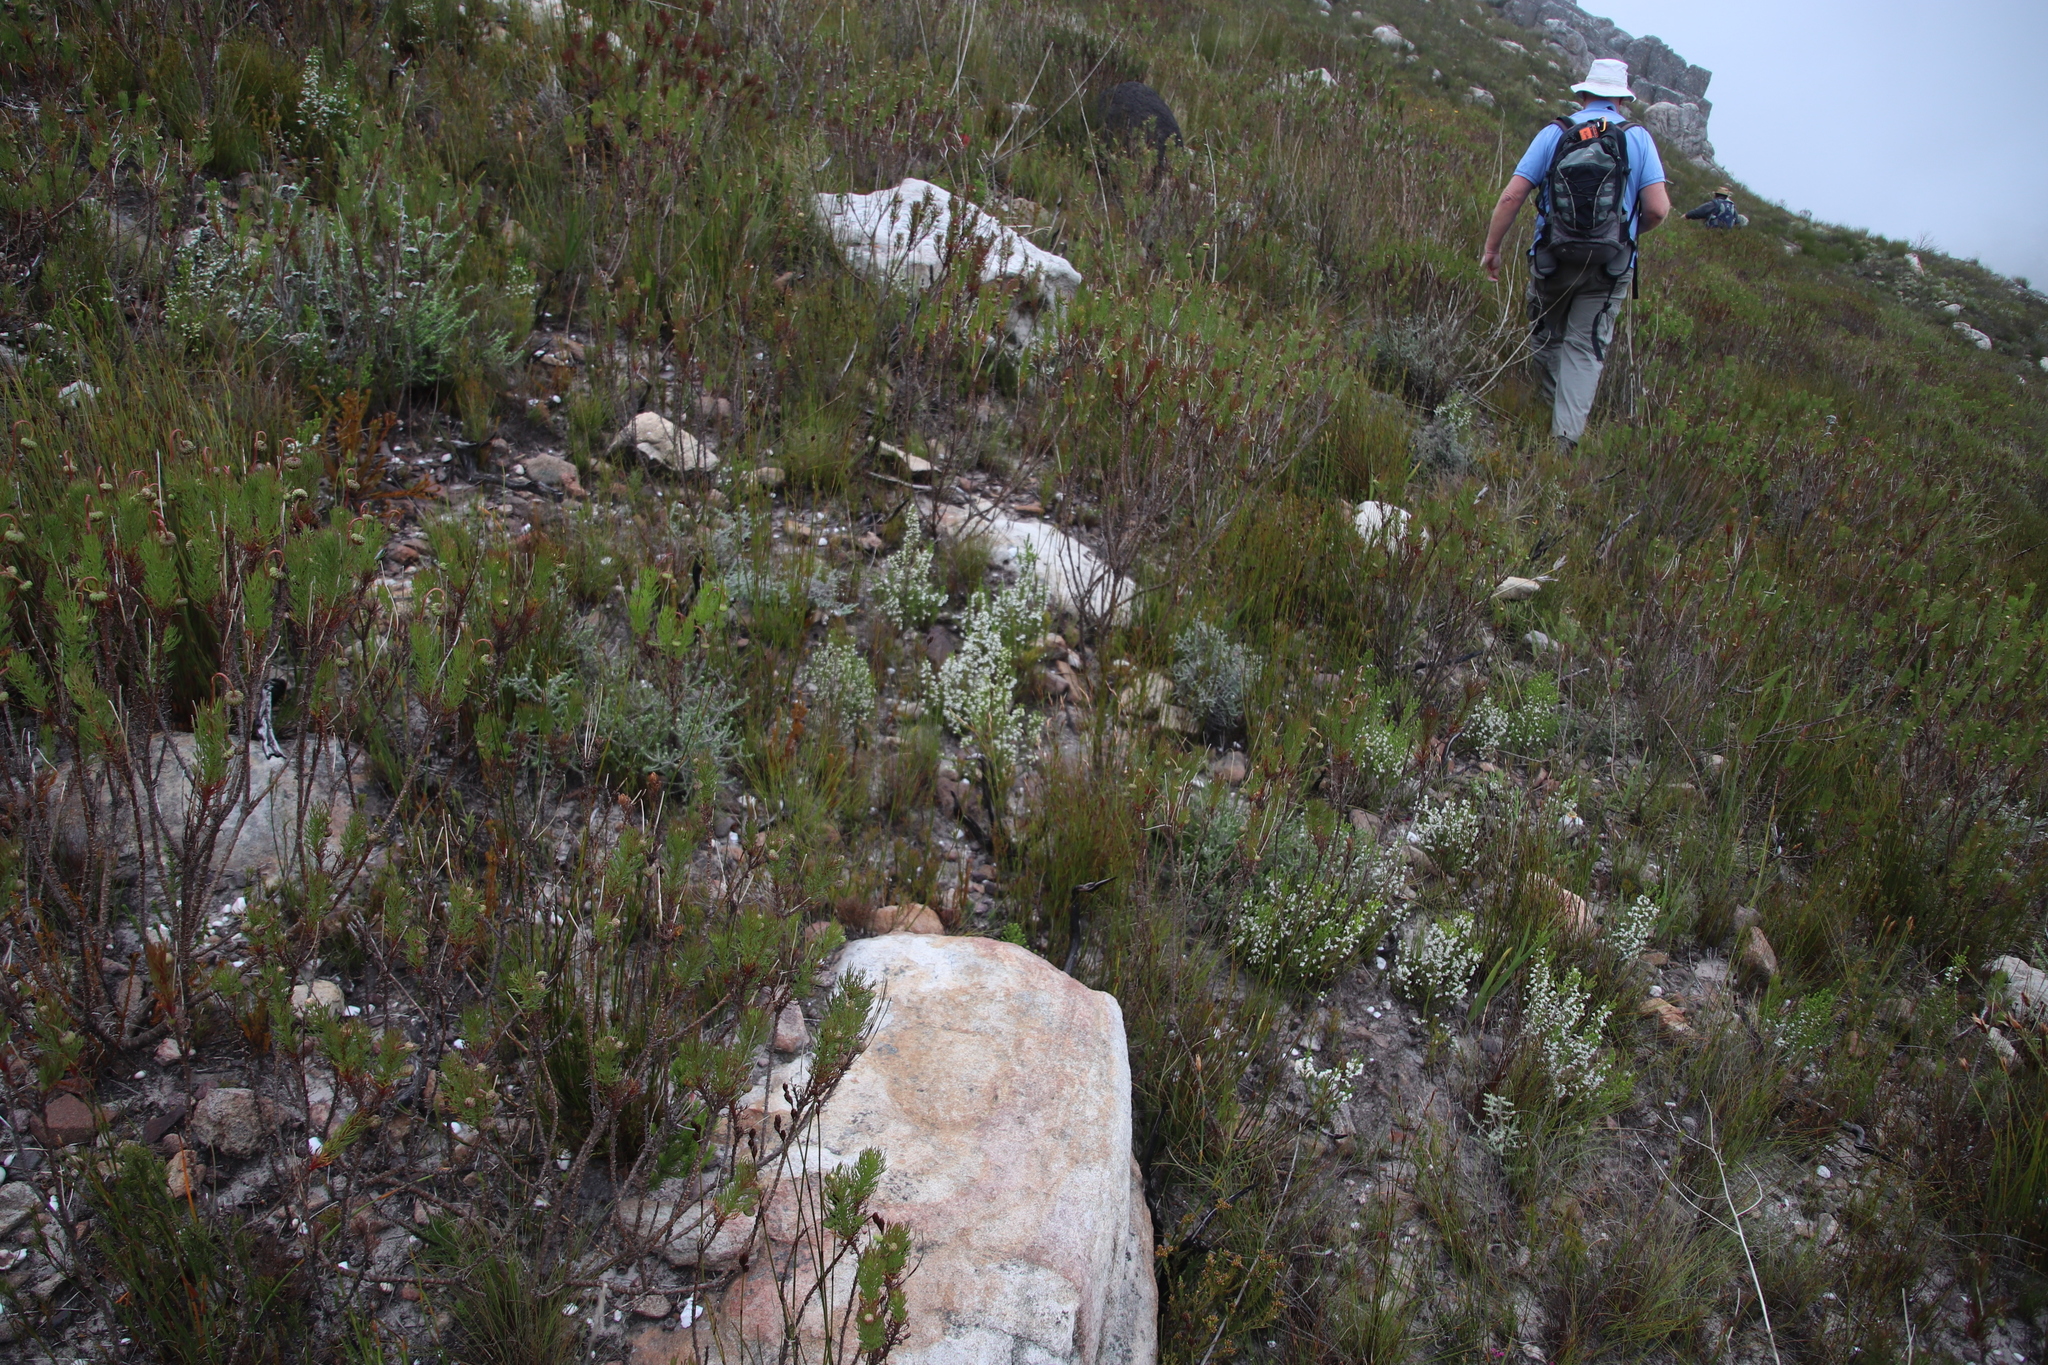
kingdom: Plantae
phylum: Tracheophyta
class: Magnoliopsida
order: Ericales
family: Ericaceae
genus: Erica
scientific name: Erica calycina
